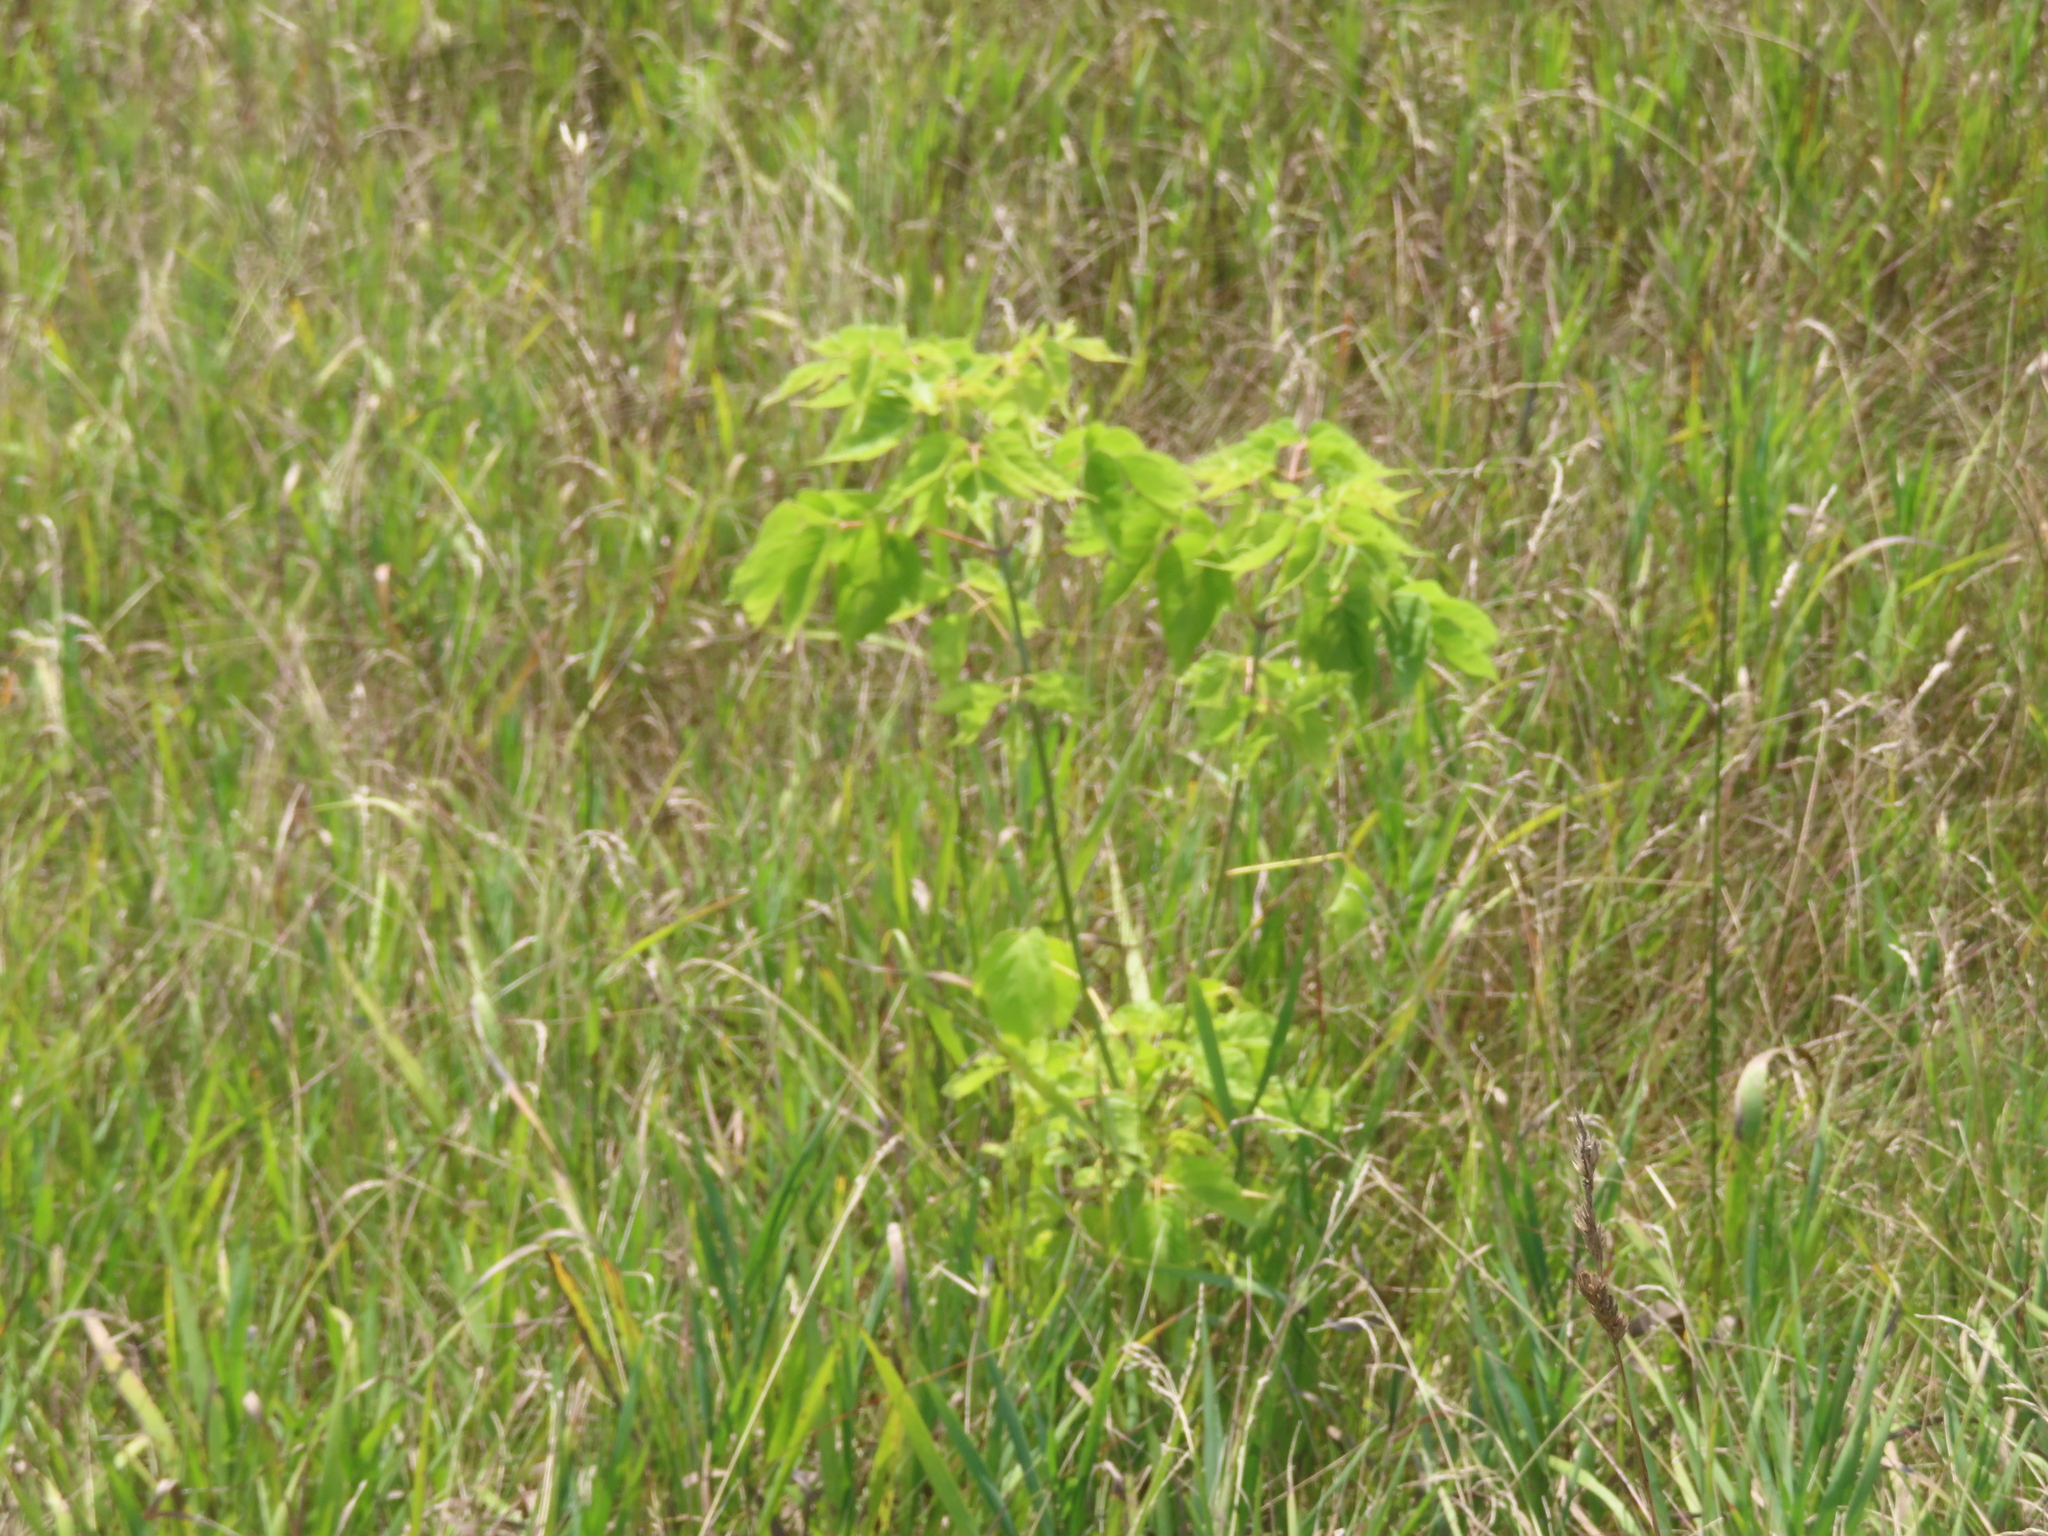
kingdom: Plantae
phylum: Tracheophyta
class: Magnoliopsida
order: Sapindales
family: Sapindaceae
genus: Acer
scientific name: Acer negundo
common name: Ashleaf maple
